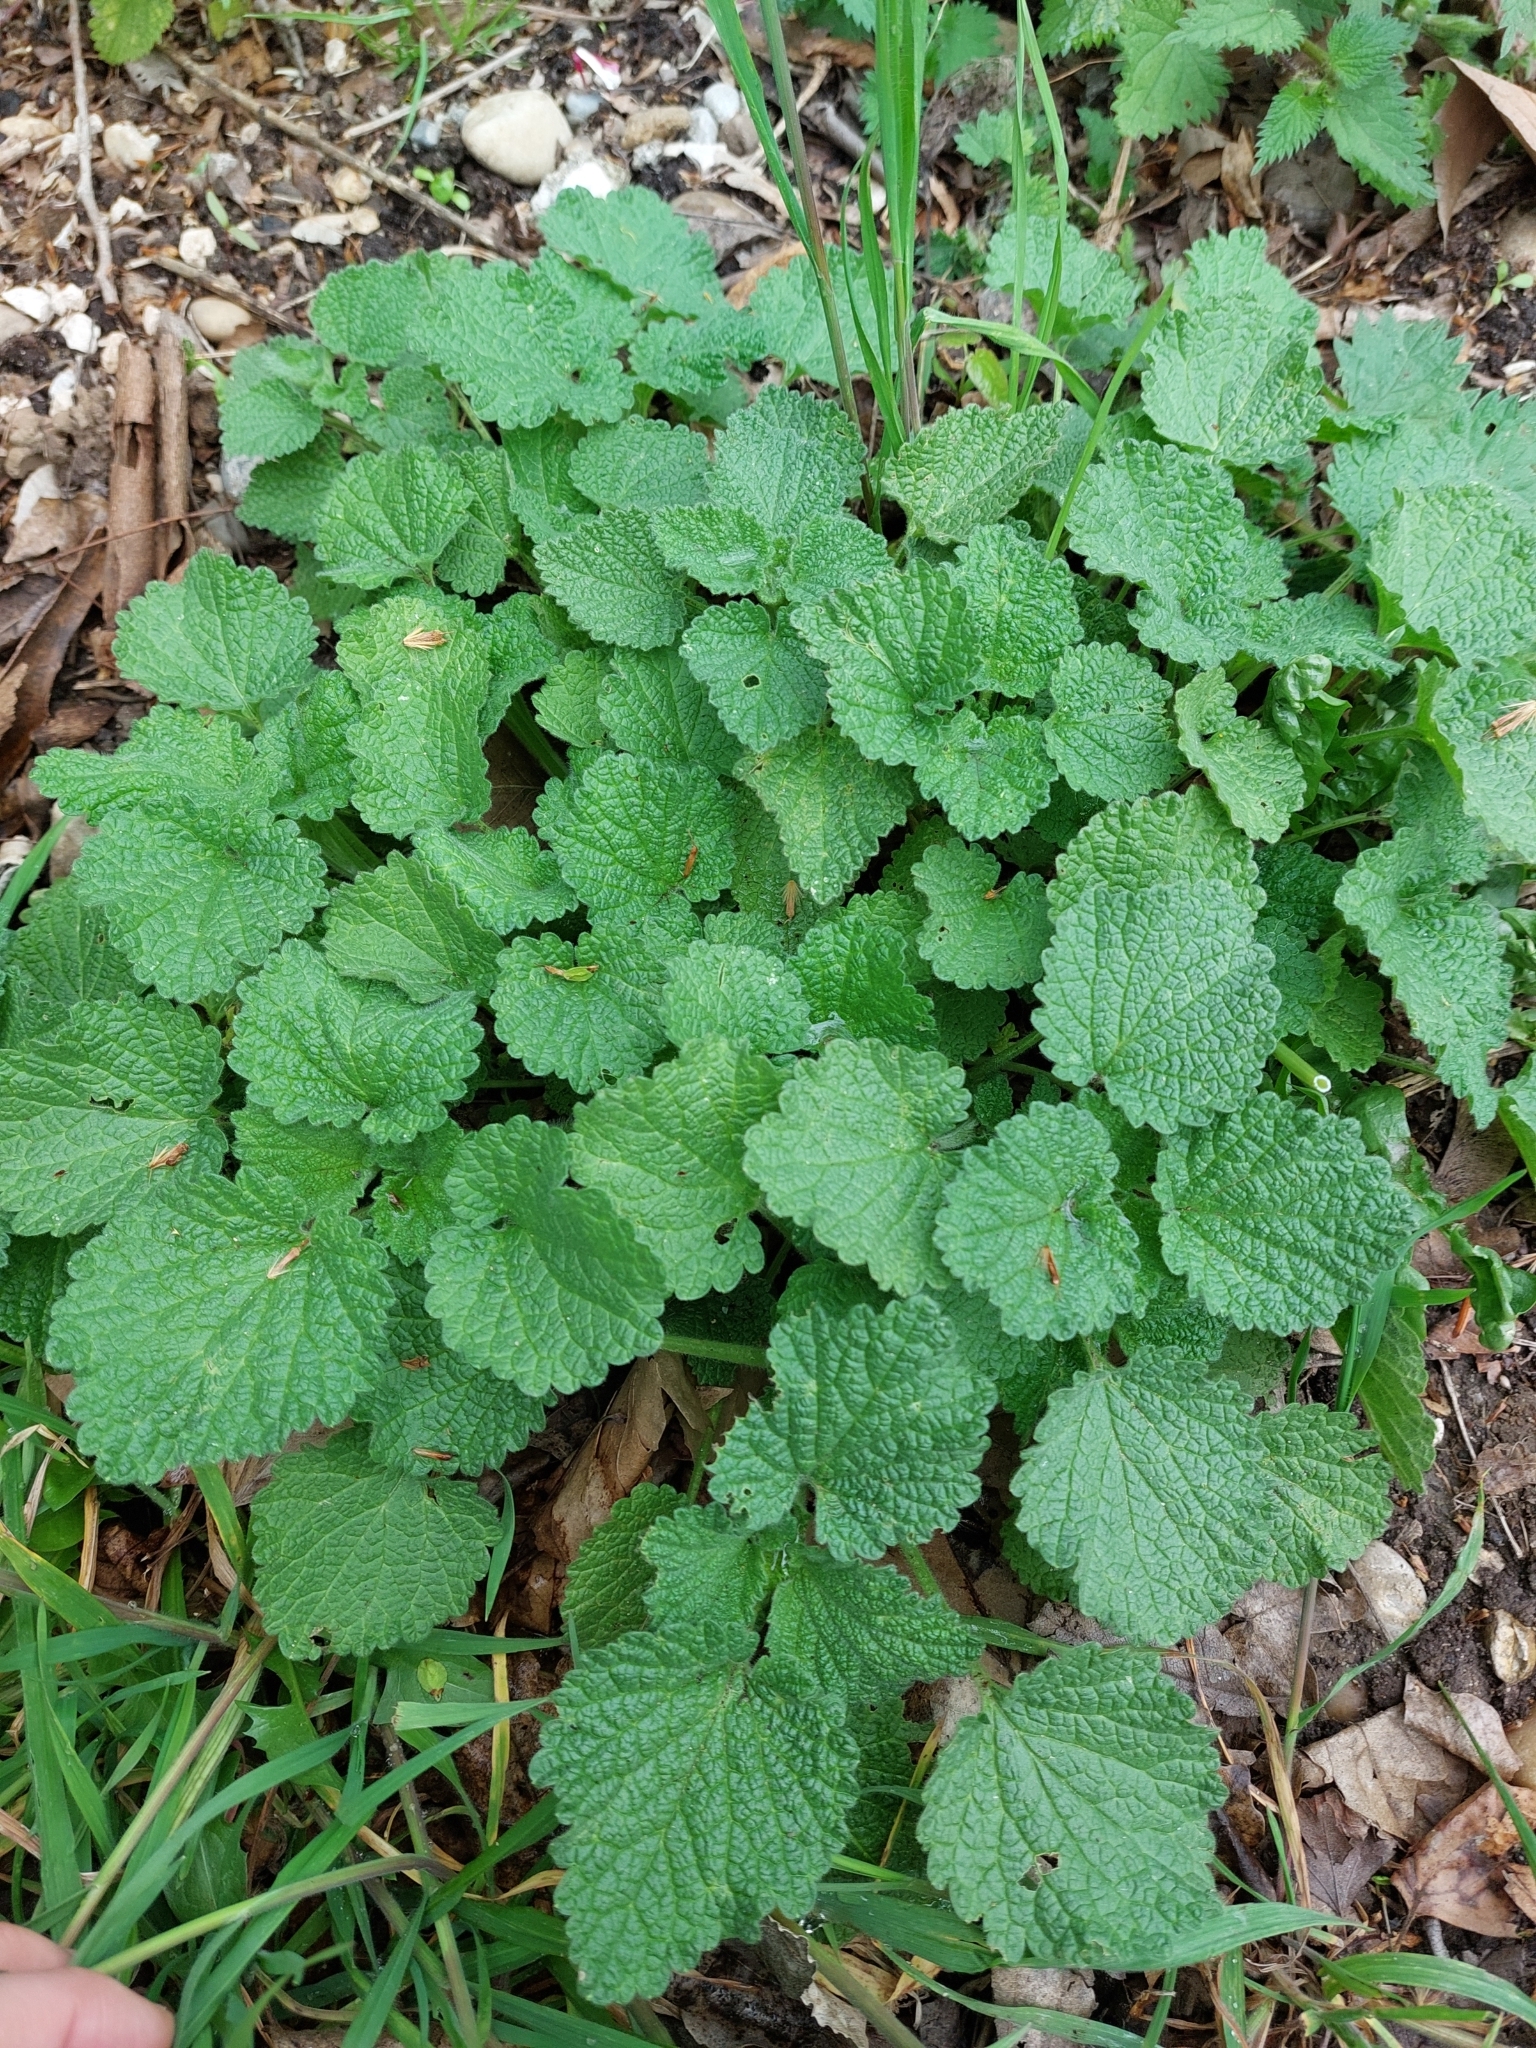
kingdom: Plantae
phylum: Tracheophyta
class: Magnoliopsida
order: Lamiales
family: Lamiaceae
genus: Ballota
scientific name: Ballota nigra
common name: Black horehound
